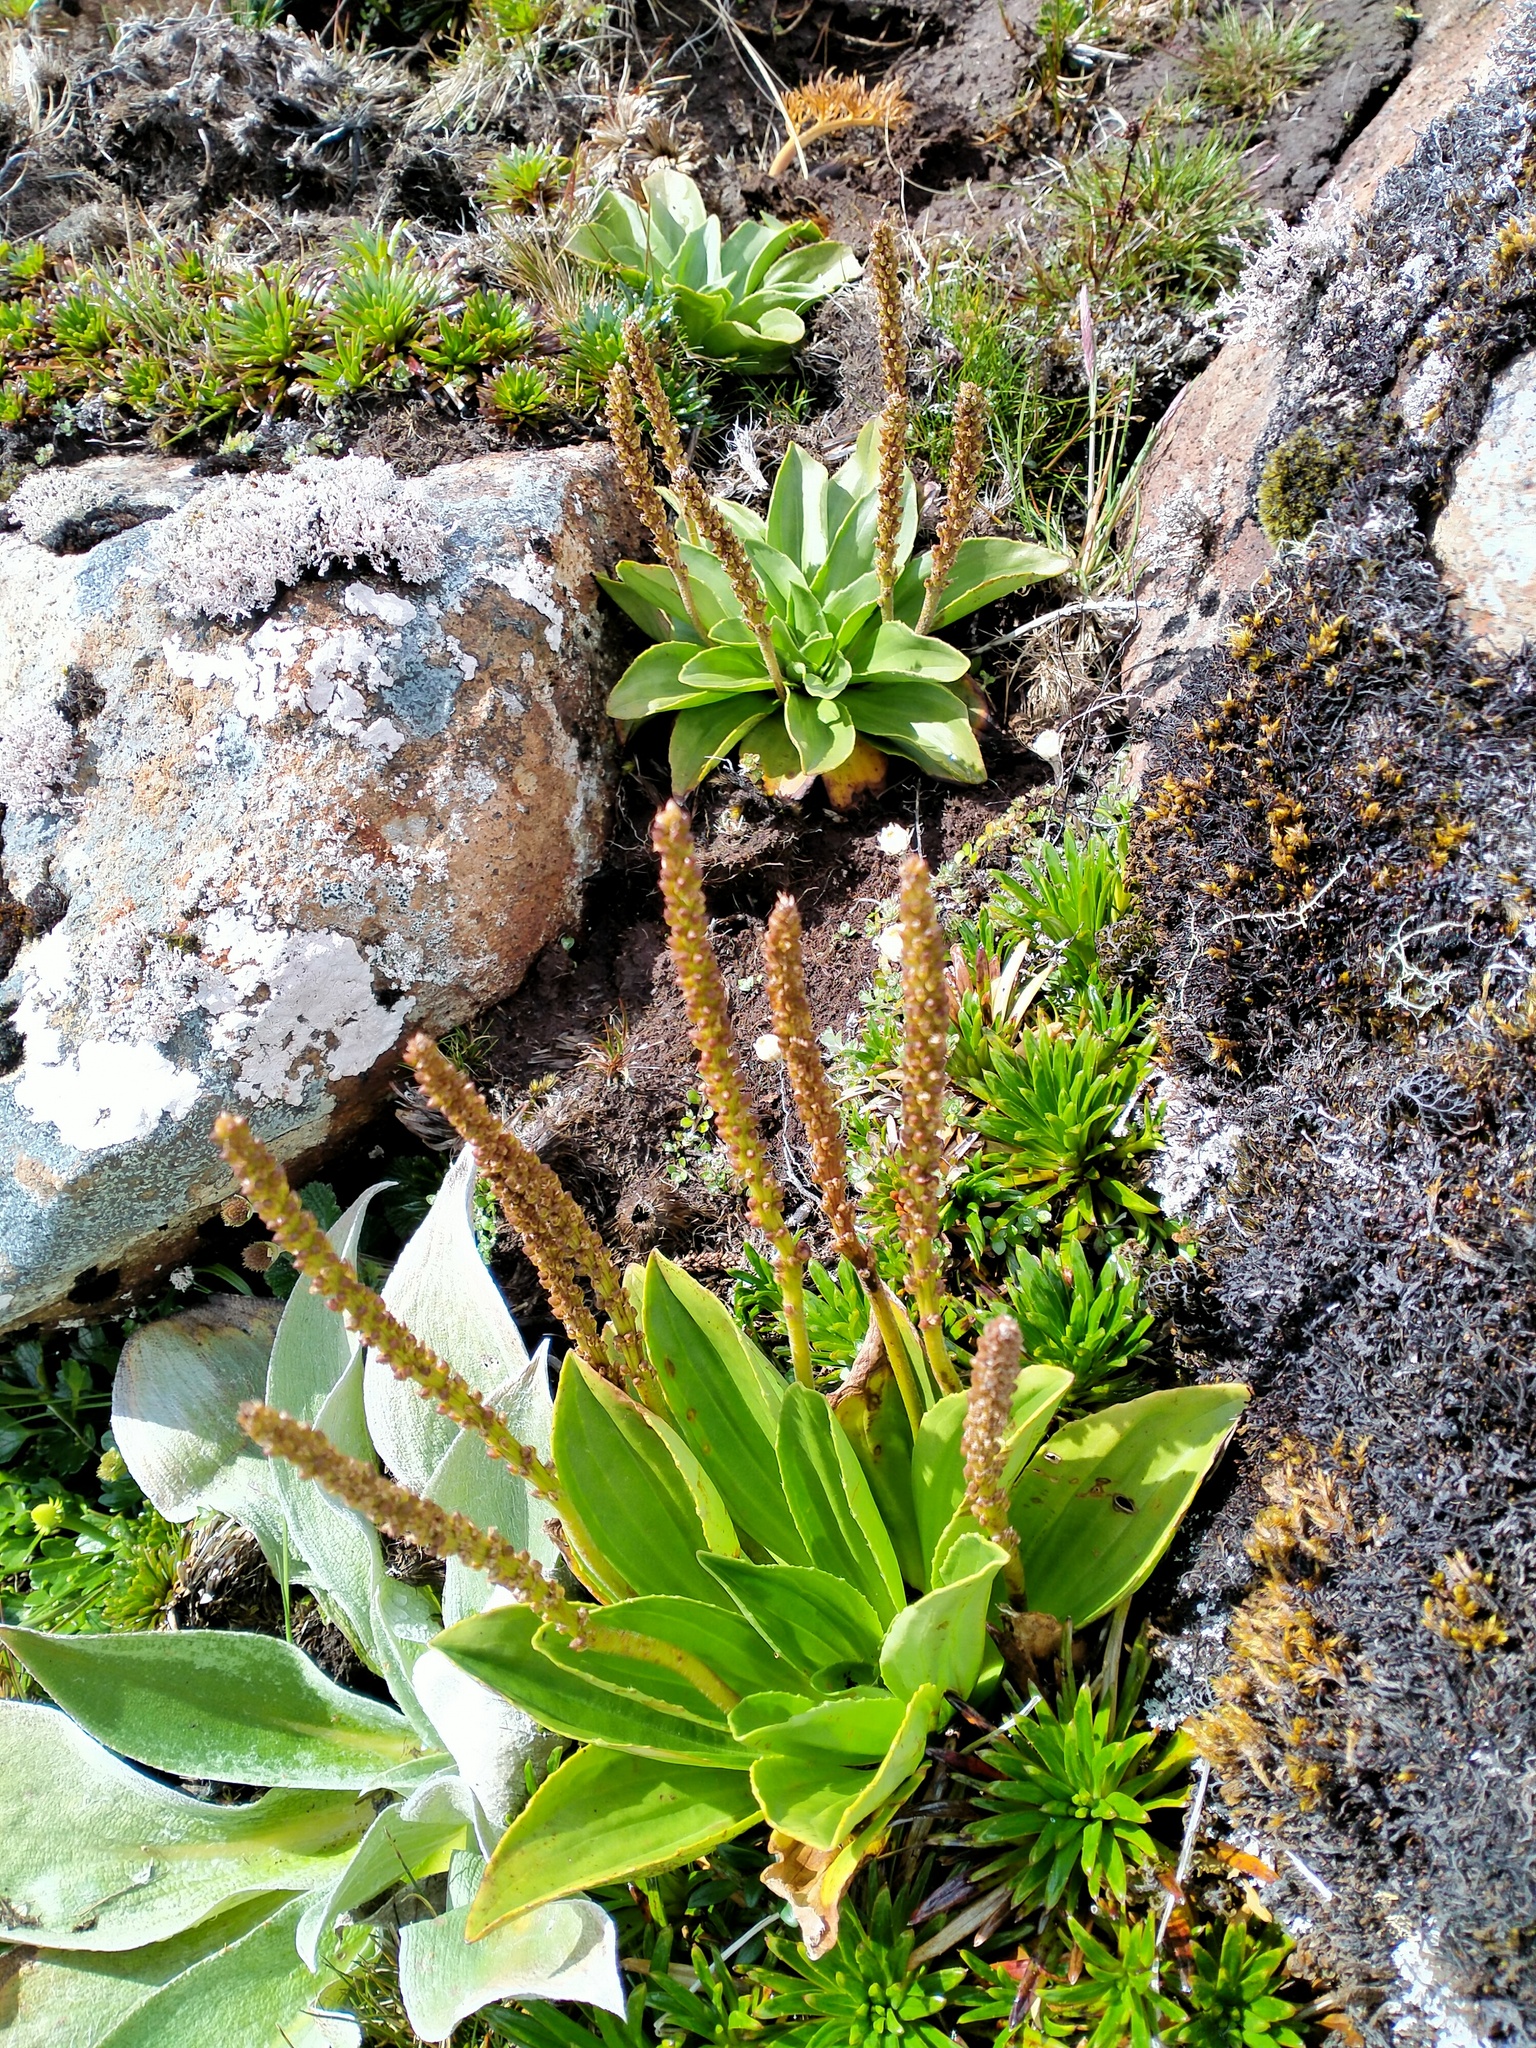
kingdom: Plantae
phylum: Tracheophyta
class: Magnoliopsida
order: Lamiales
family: Plantaginaceae
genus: Plantago
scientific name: Plantago aucklandica
